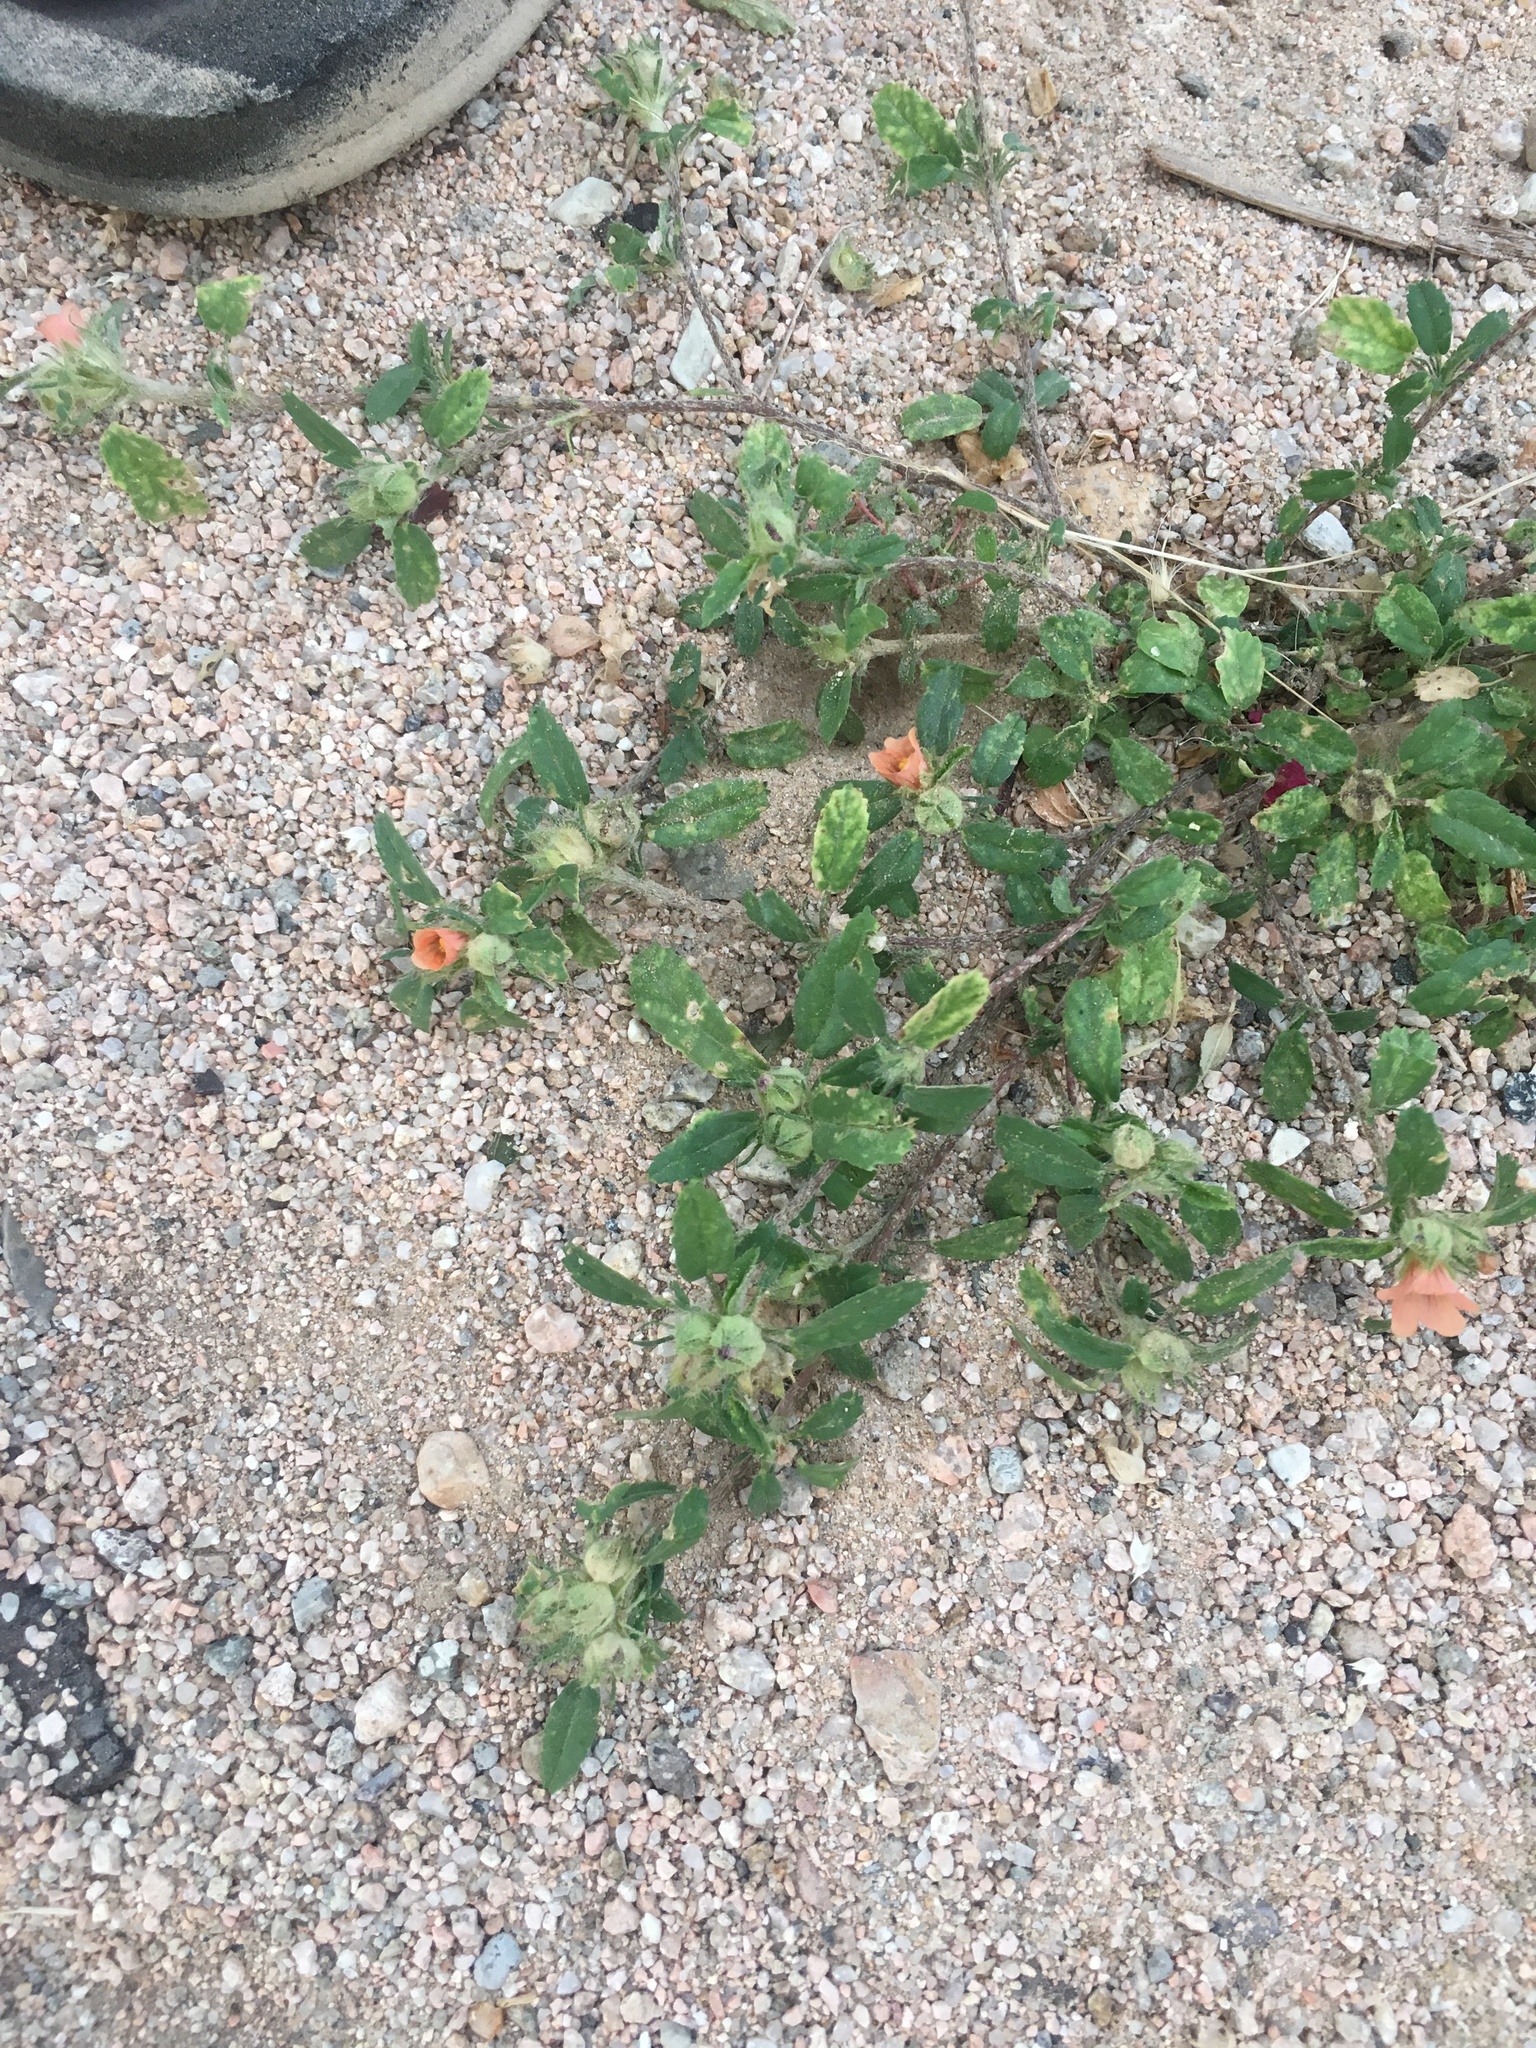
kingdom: Plantae
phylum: Tracheophyta
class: Magnoliopsida
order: Malvales
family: Malvaceae
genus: Sida
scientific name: Sida ciliaris
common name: Bracted fanpetals
